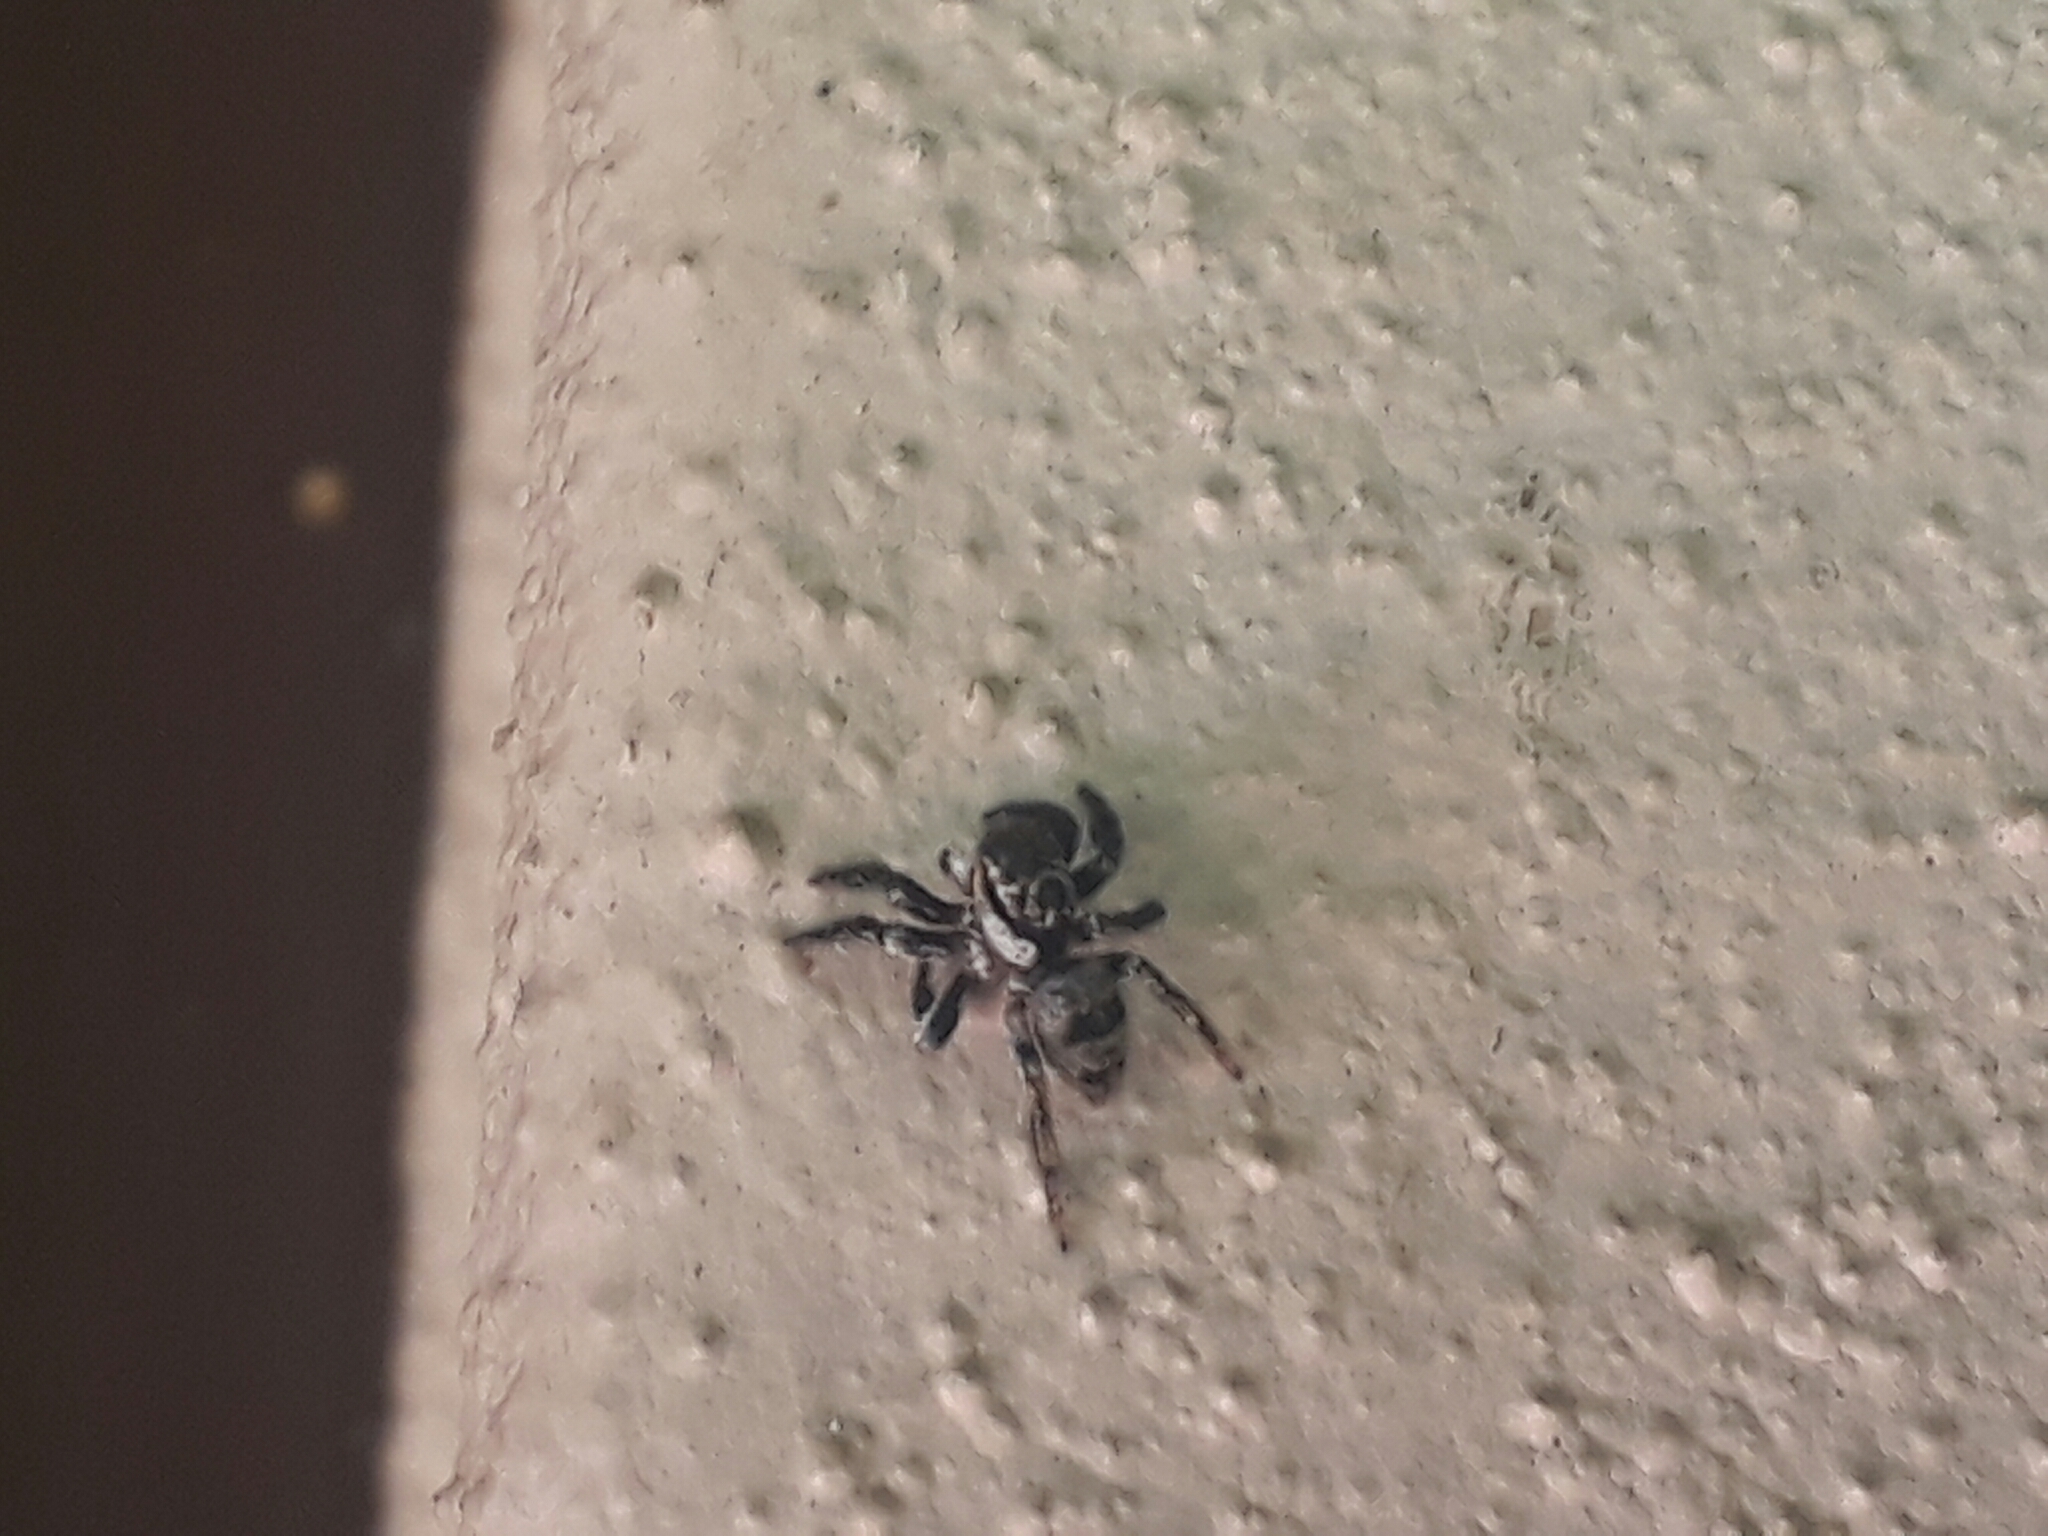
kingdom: Animalia
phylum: Arthropoda
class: Arachnida
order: Araneae
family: Salticidae
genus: Corythalia
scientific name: Corythalia conferta
